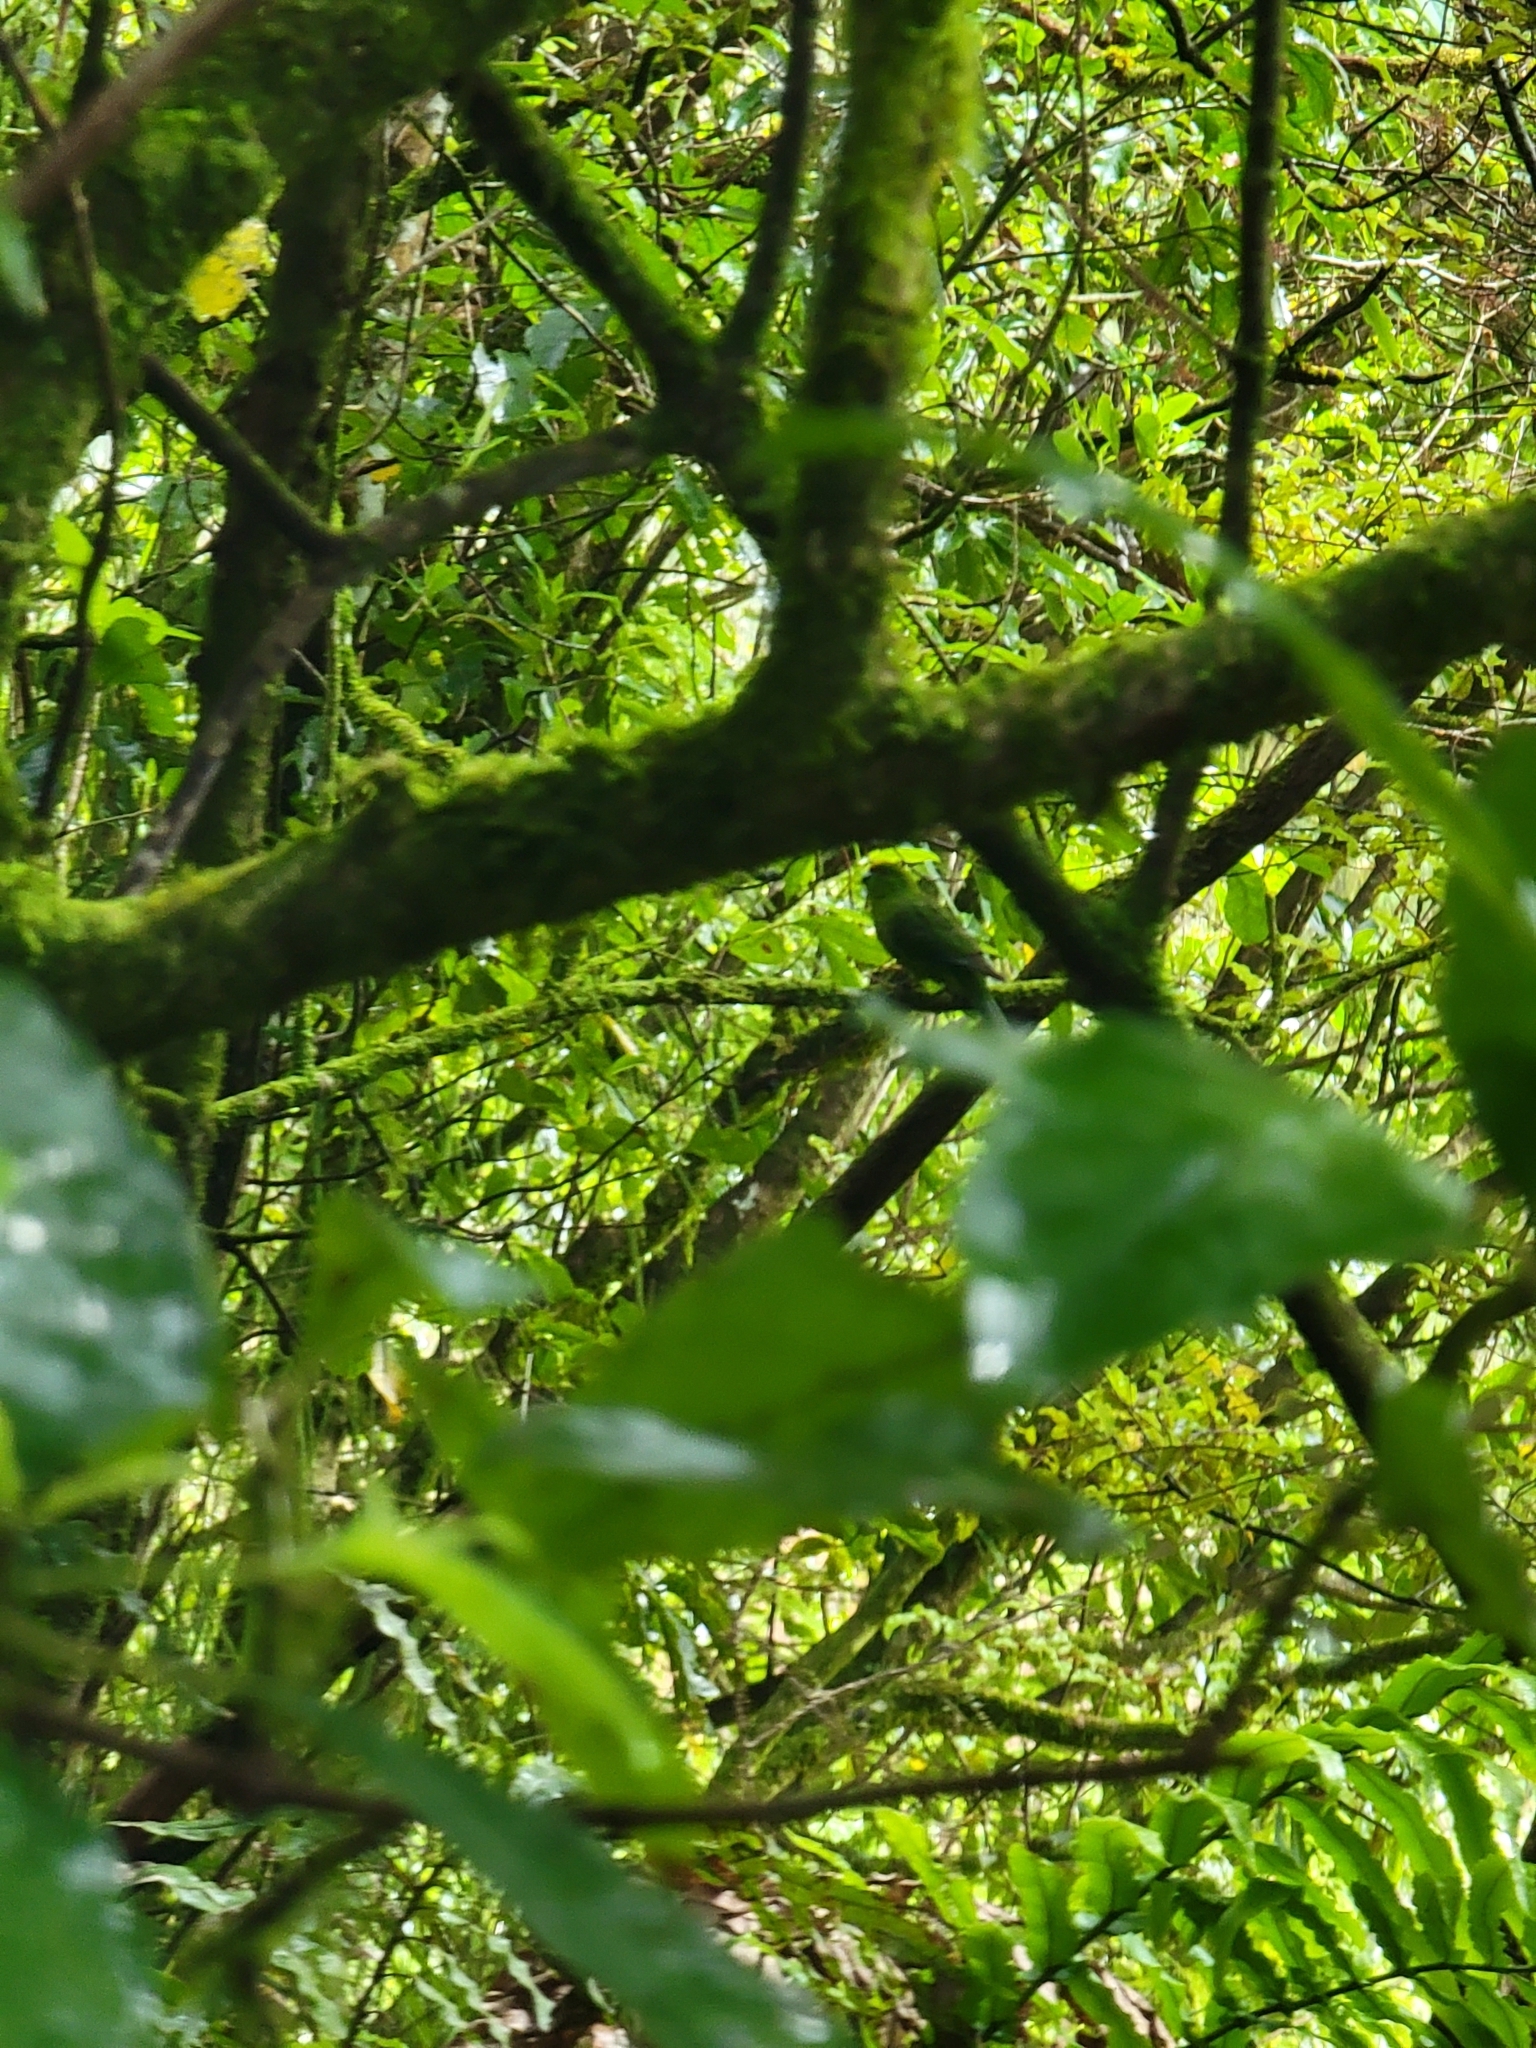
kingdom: Animalia
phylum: Chordata
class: Aves
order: Psittaciformes
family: Psittacidae
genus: Cyanoramphus
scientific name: Cyanoramphus auriceps
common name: Yellow-crowned parakeet
